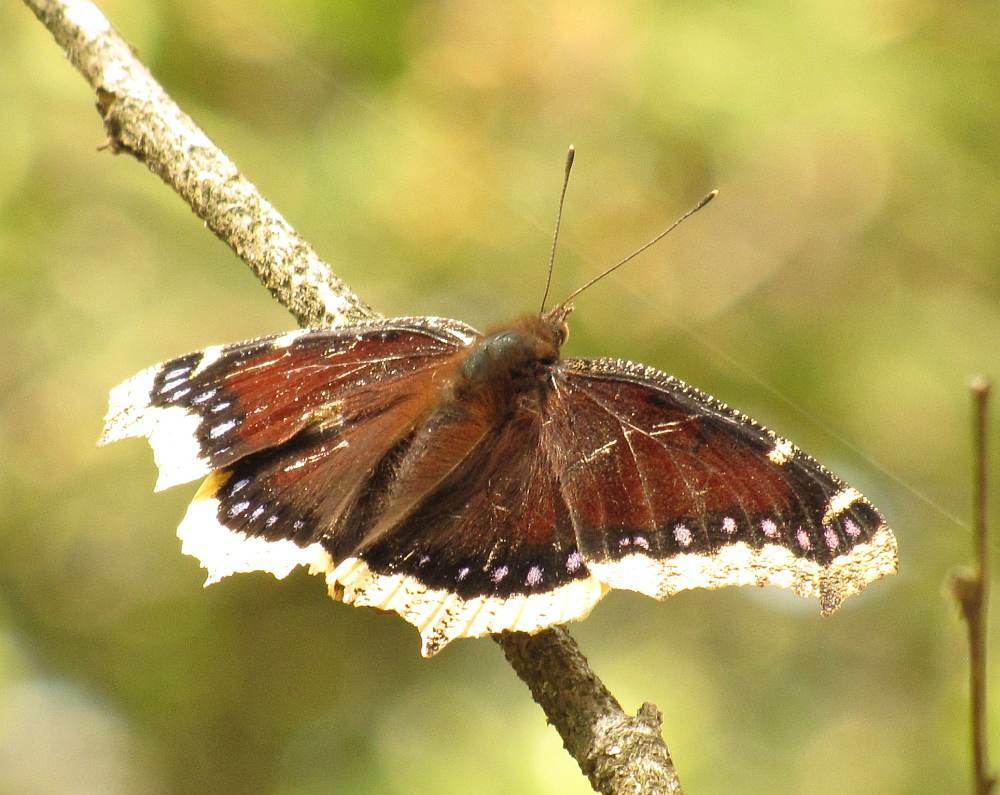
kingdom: Animalia
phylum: Arthropoda
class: Insecta
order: Lepidoptera
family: Nymphalidae
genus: Nymphalis
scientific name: Nymphalis antiopa
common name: Camberwell beauty
